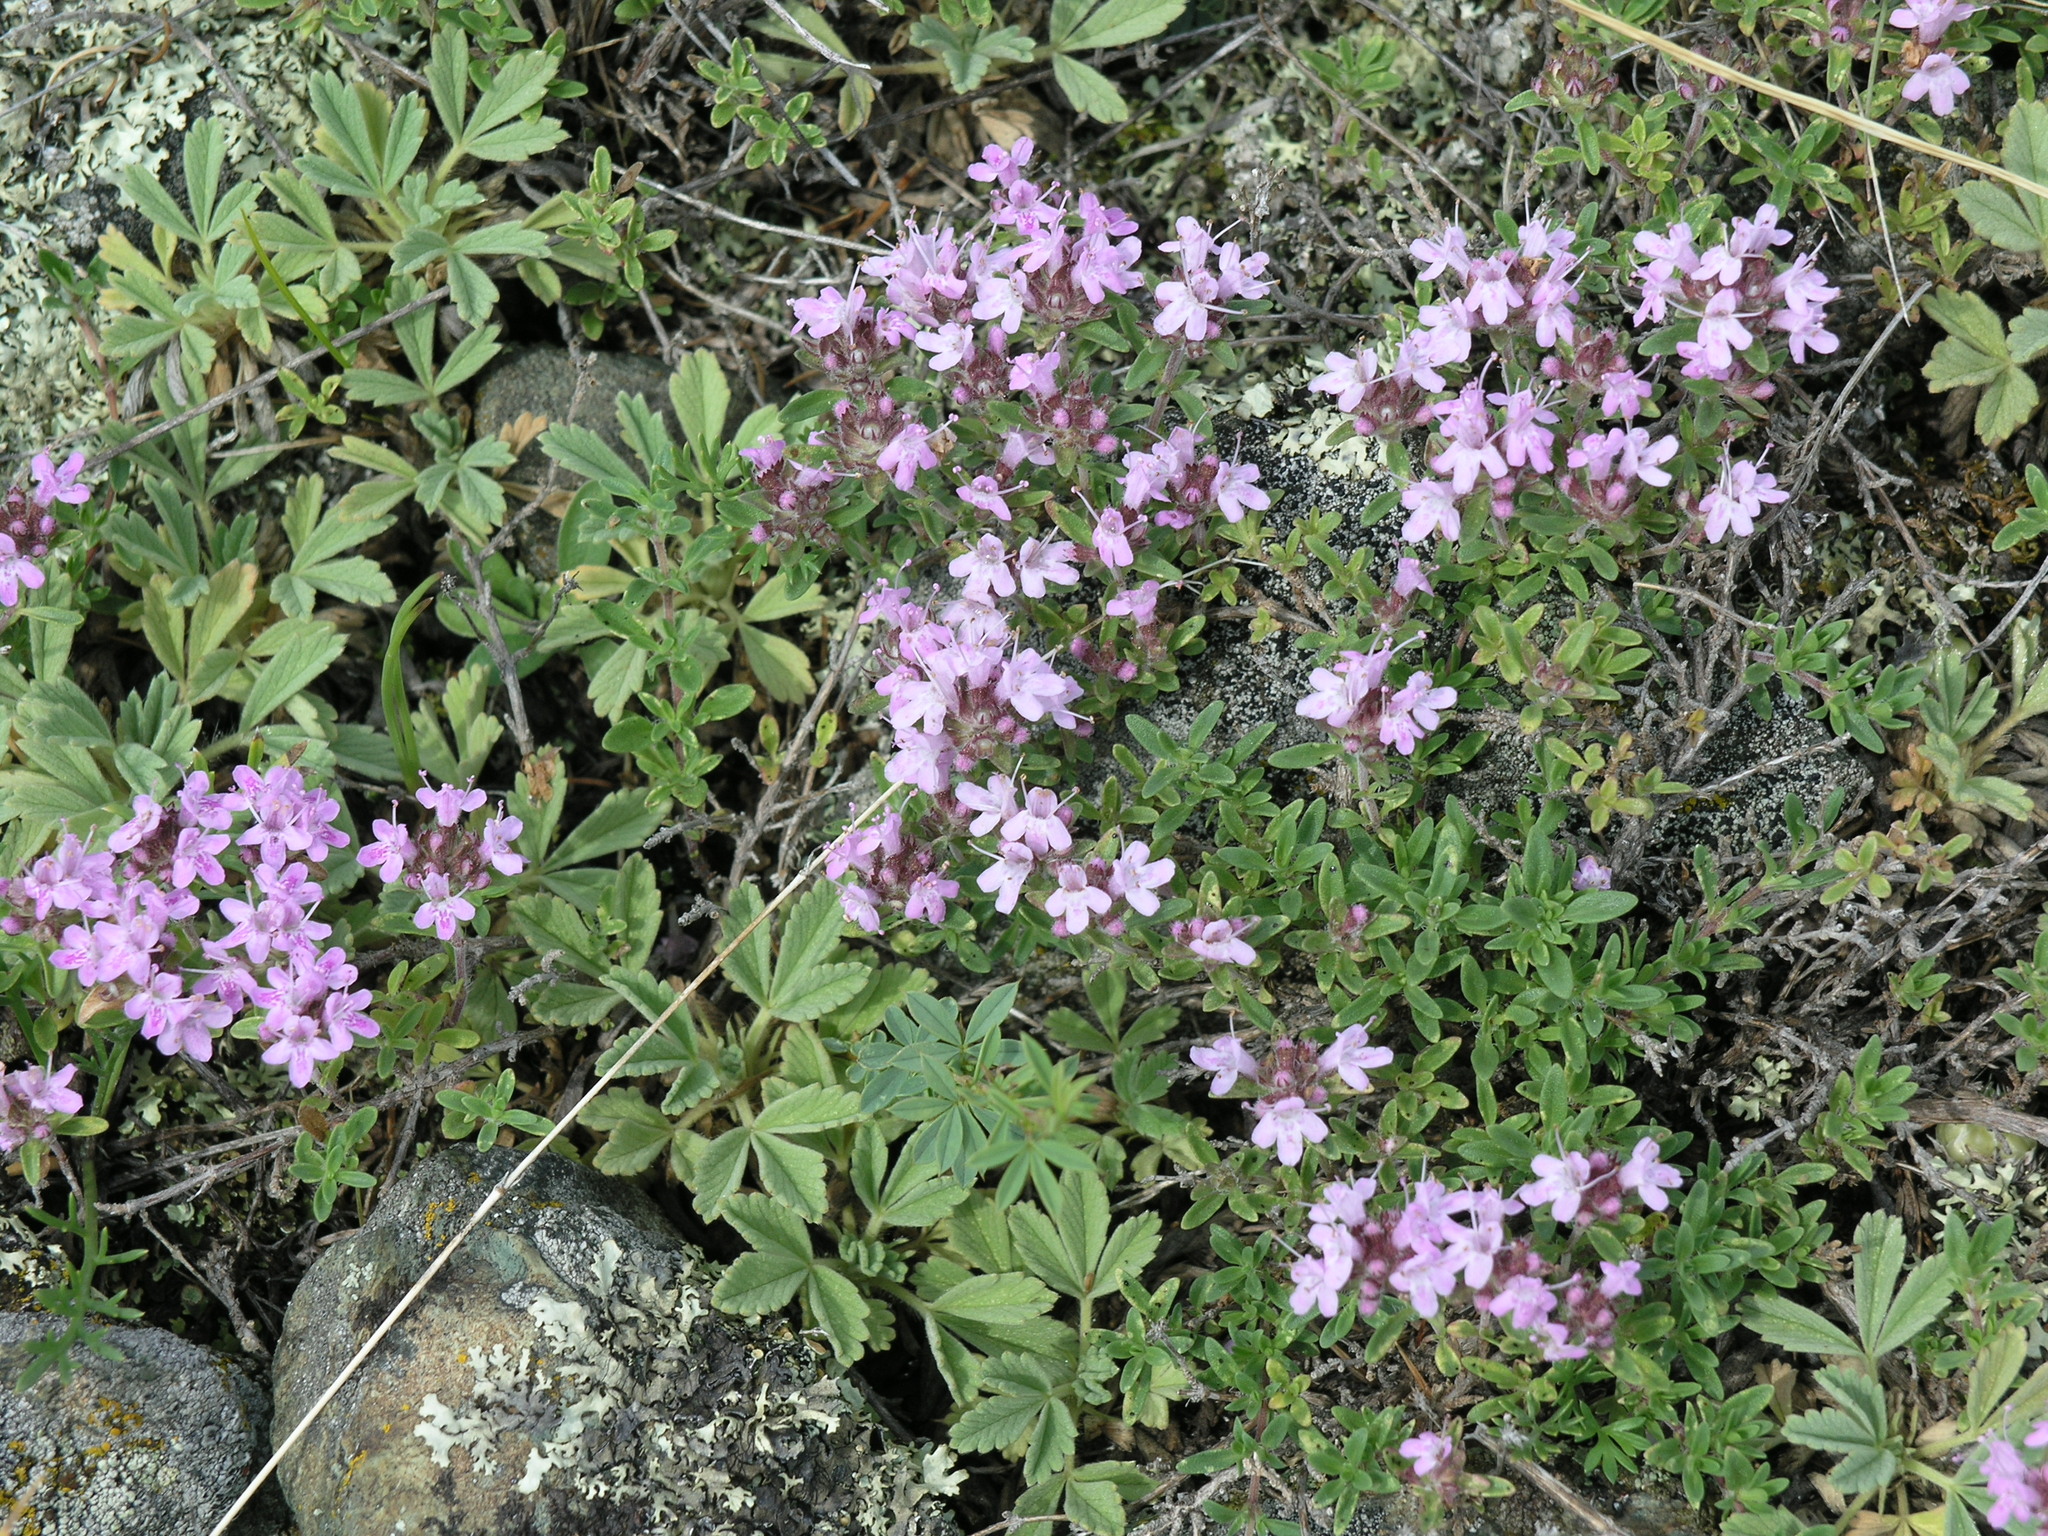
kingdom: Plantae
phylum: Tracheophyta
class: Magnoliopsida
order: Rosales
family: Rosaceae
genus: Potentilla
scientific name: Potentilla acaulis
